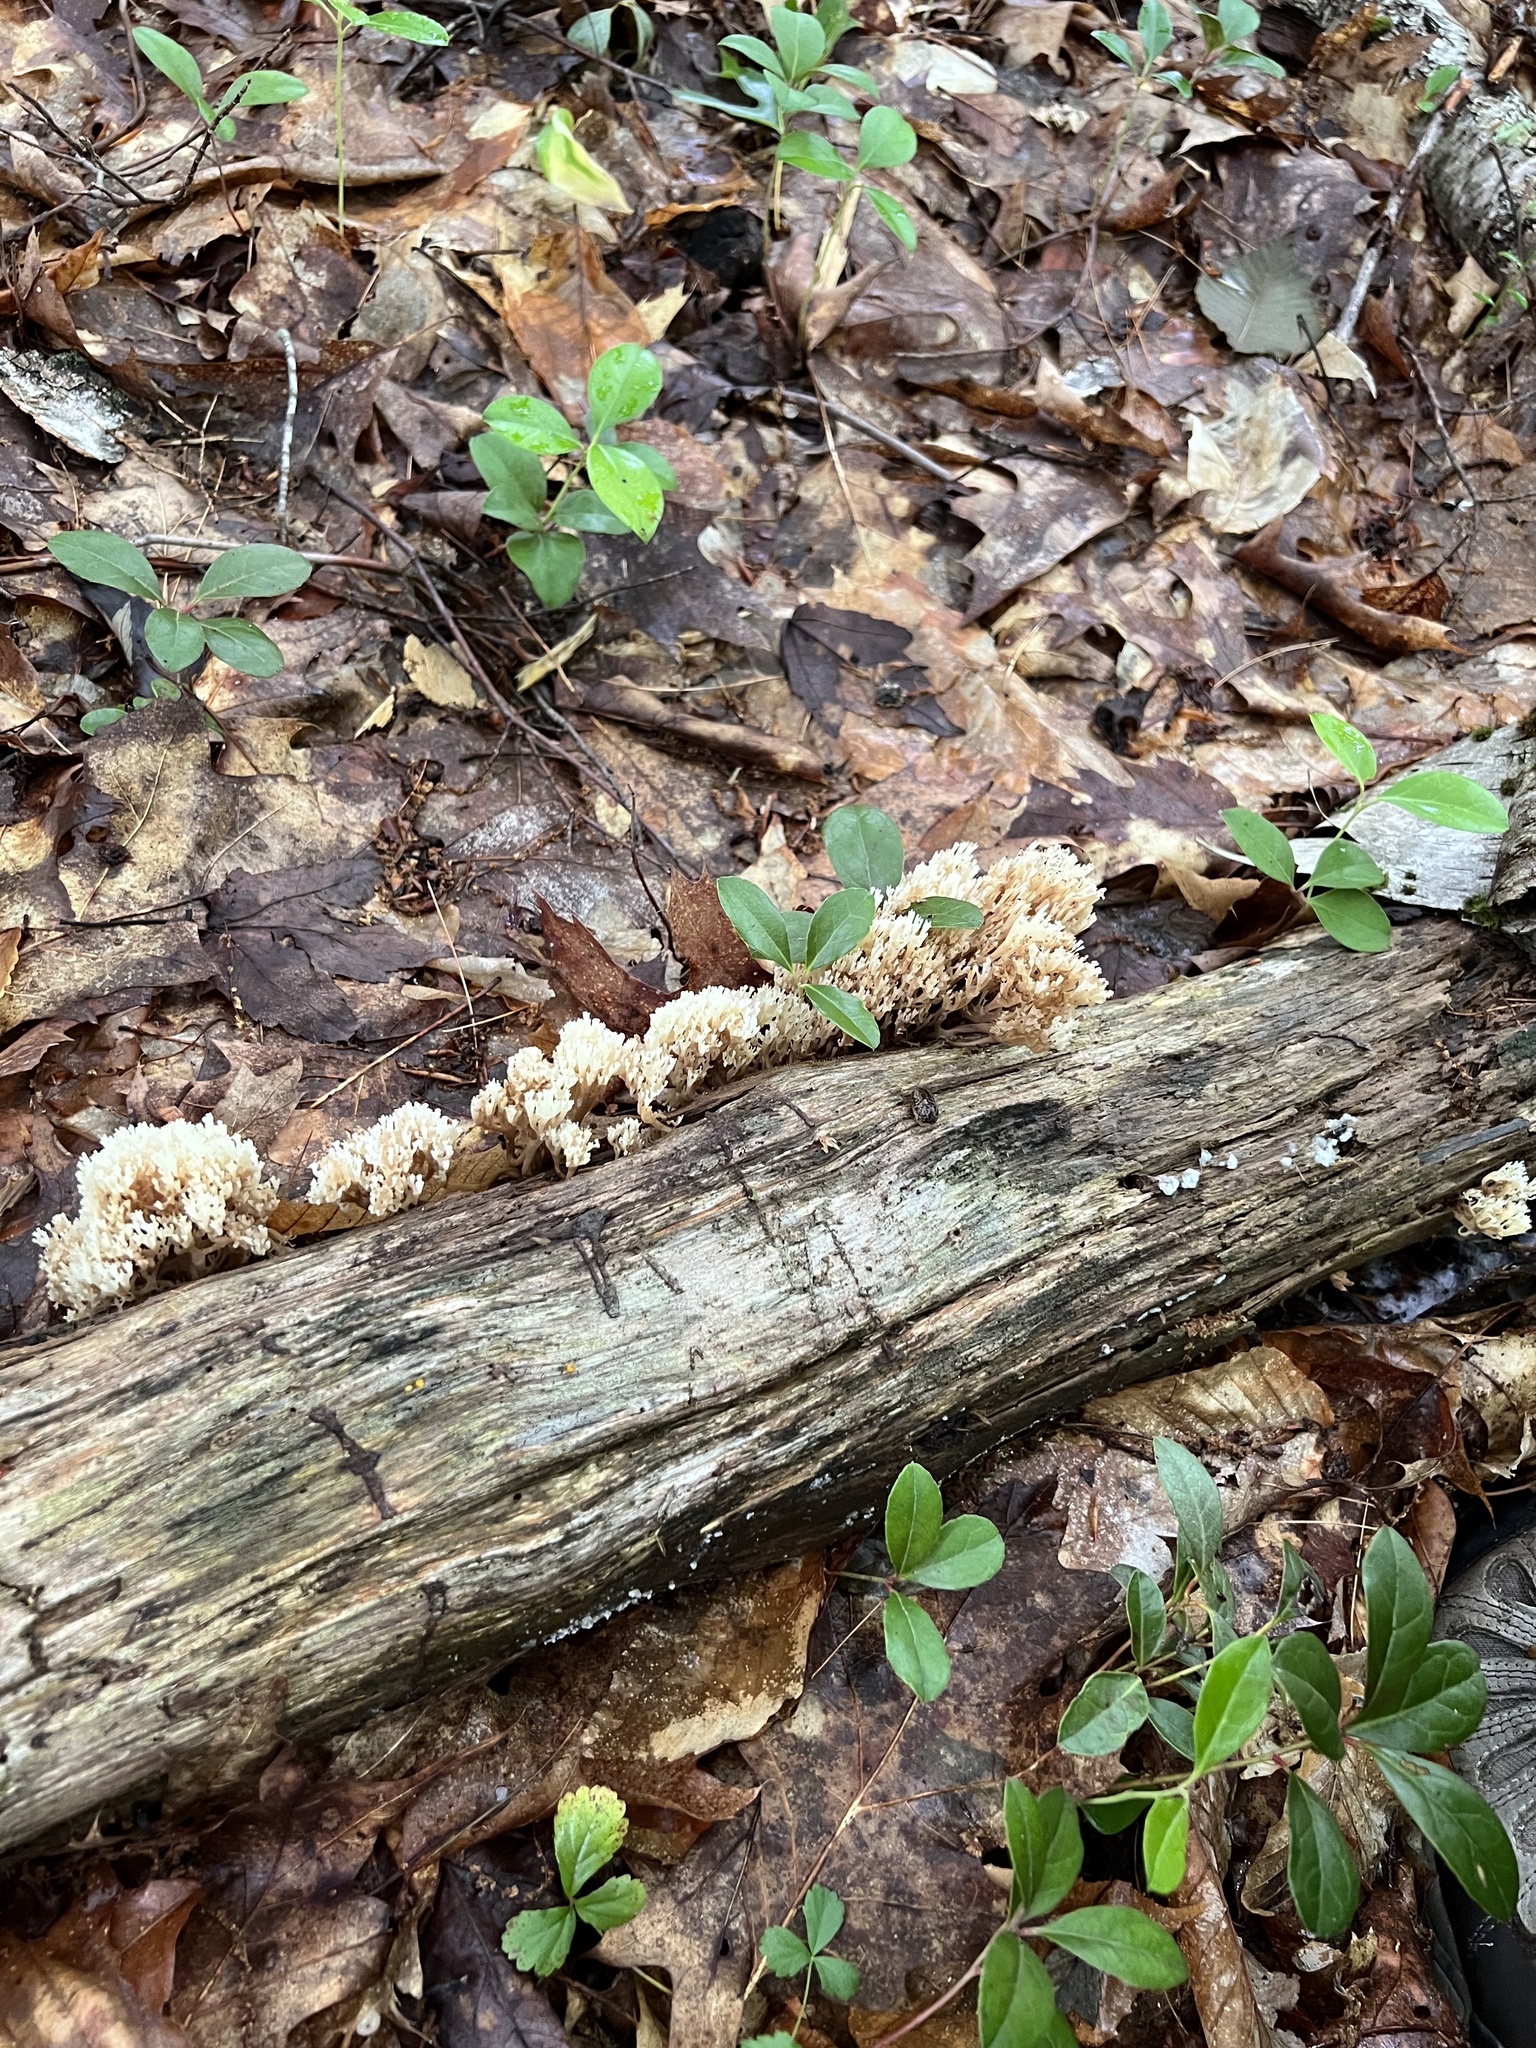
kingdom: Fungi
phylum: Basidiomycota
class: Agaricomycetes
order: Russulales
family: Auriscalpiaceae
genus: Artomyces
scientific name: Artomyces pyxidatus
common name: Crown-tipped coral fungus
